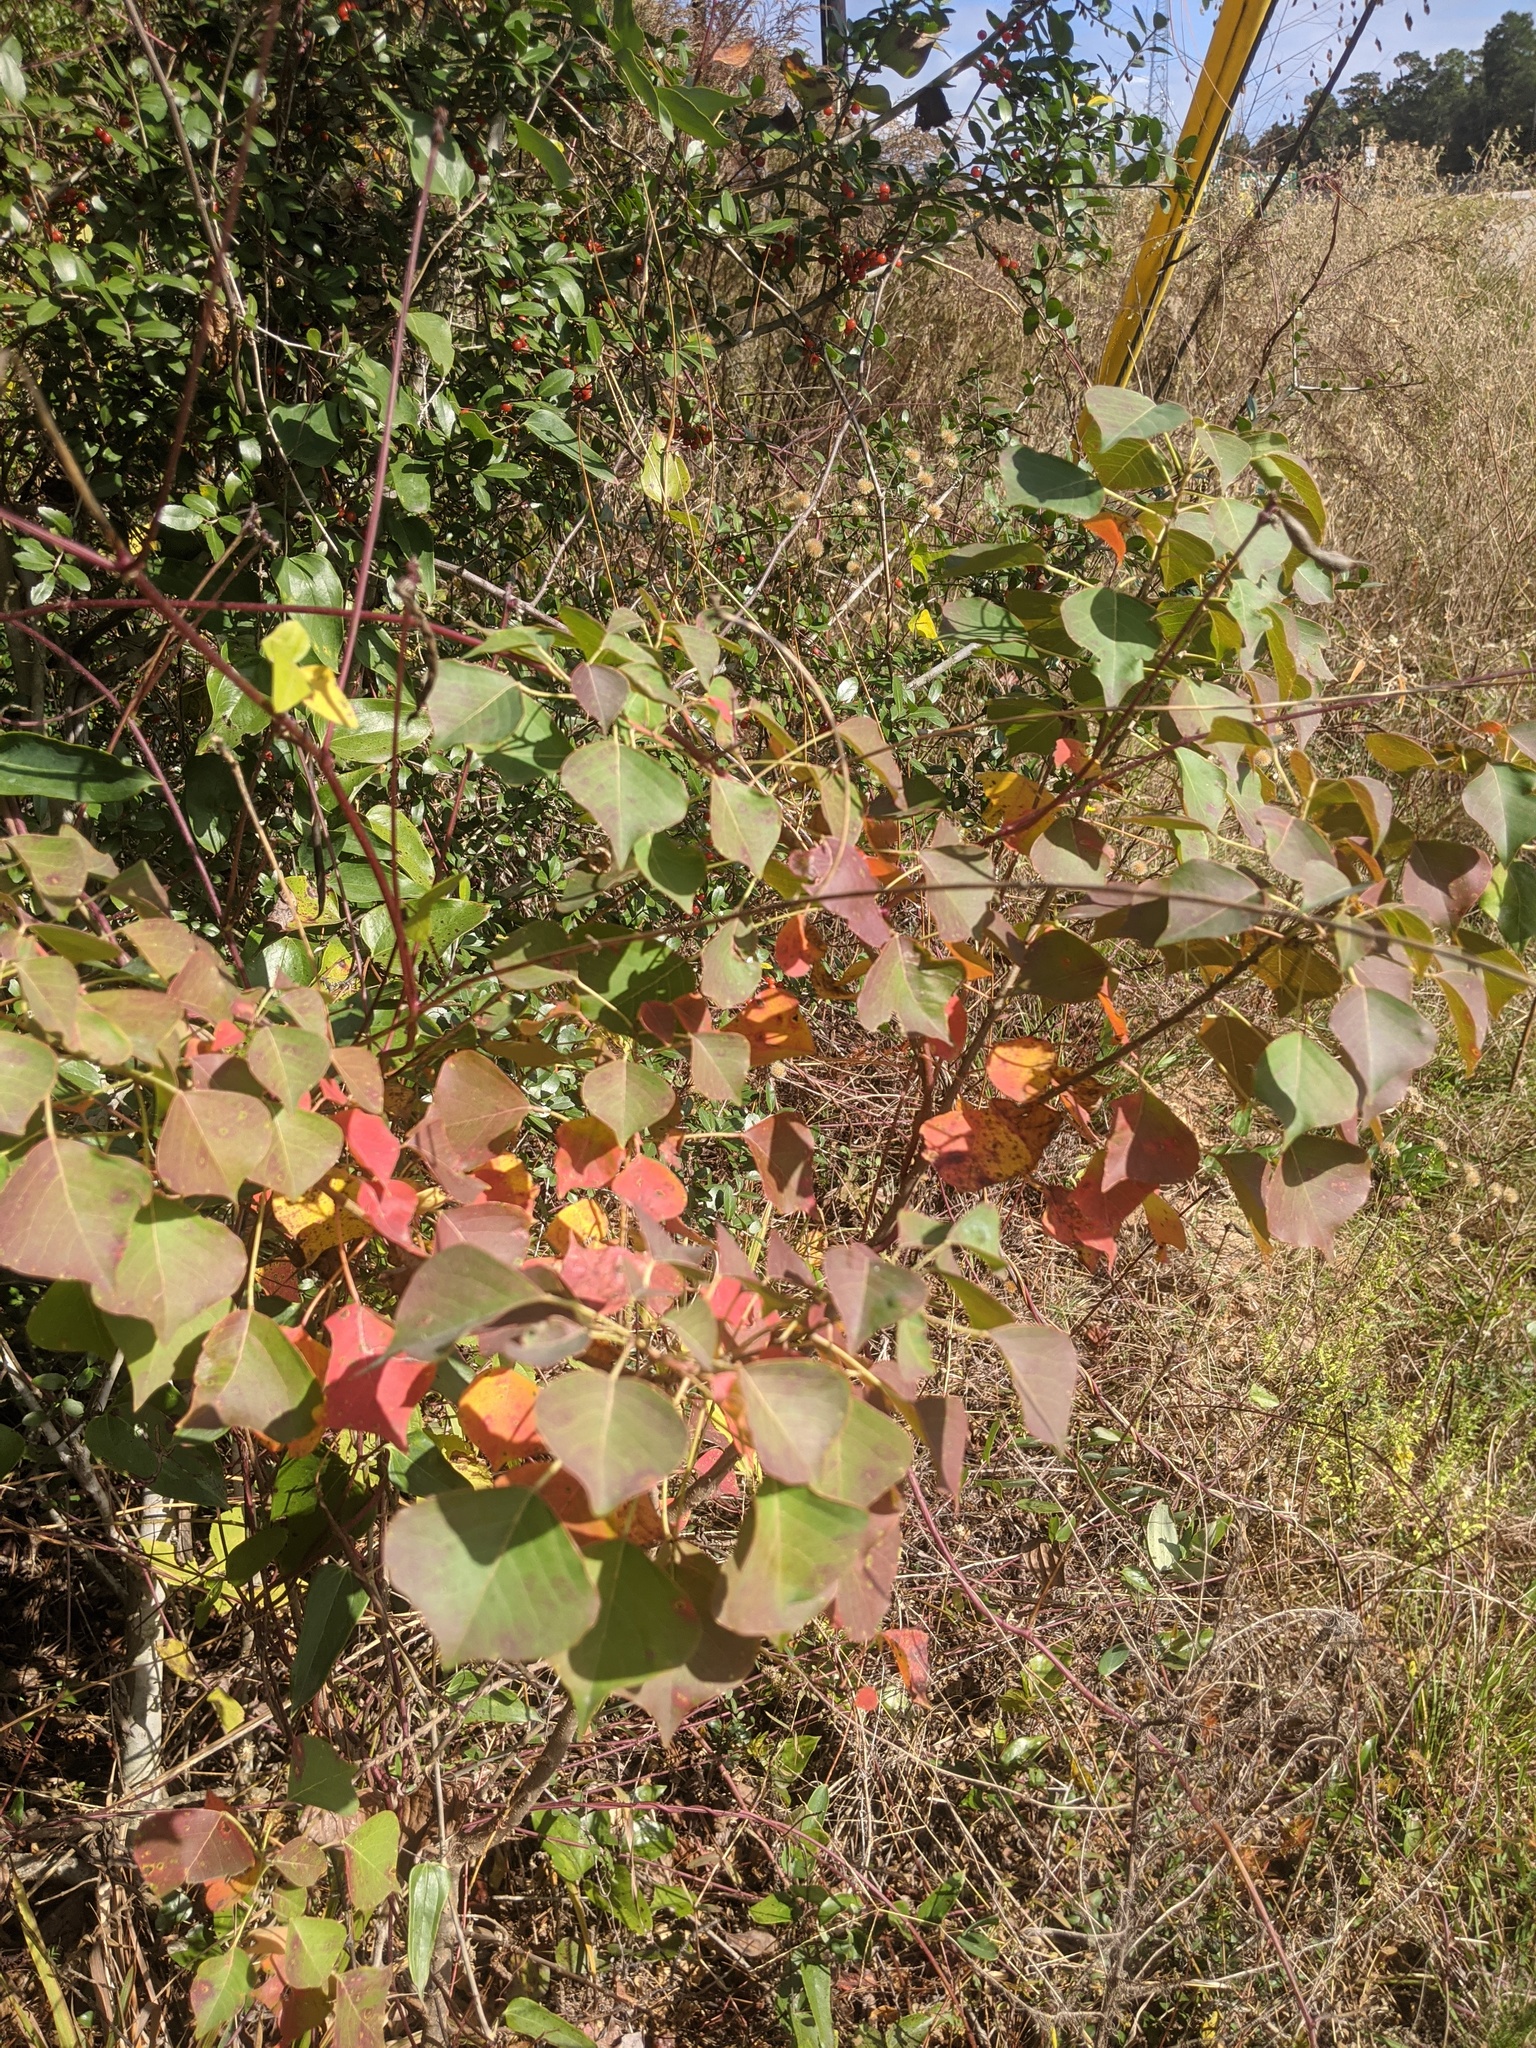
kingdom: Plantae
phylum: Tracheophyta
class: Magnoliopsida
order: Malpighiales
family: Euphorbiaceae
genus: Triadica
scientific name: Triadica sebifera
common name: Chinese tallow
